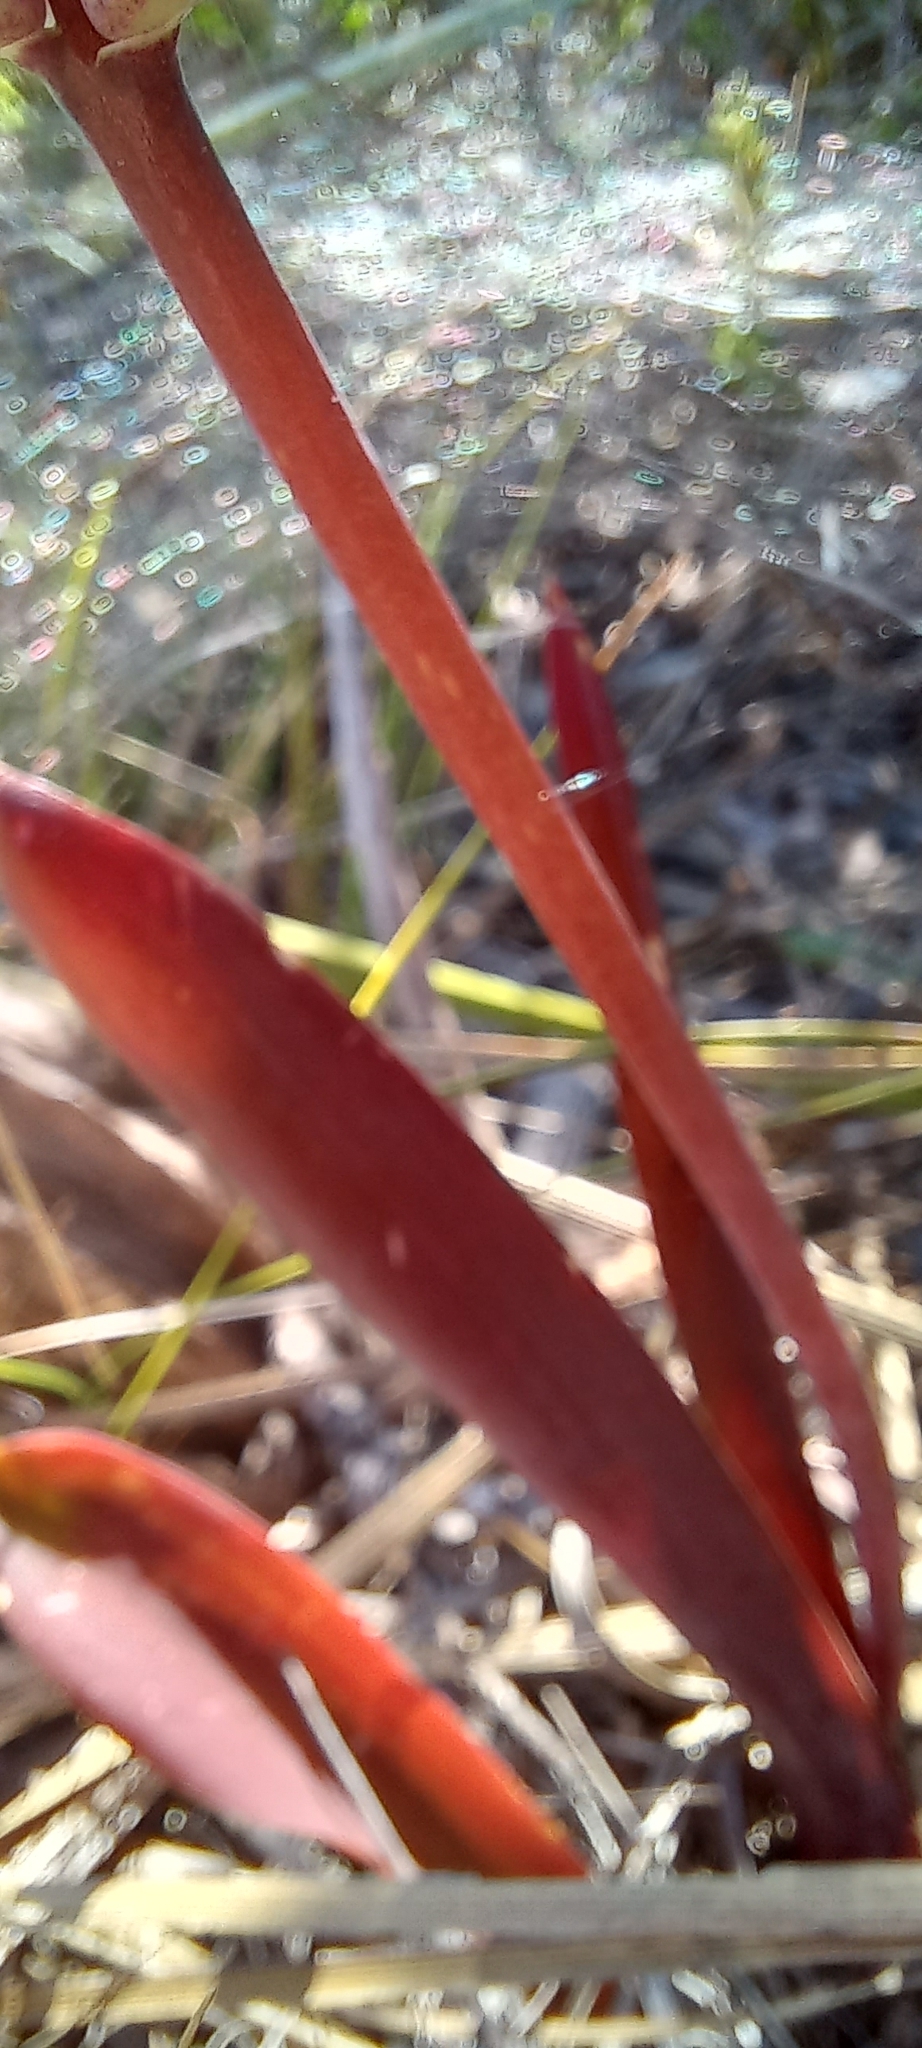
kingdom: Plantae
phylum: Tracheophyta
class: Liliopsida
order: Asparagales
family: Asparagaceae
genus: Lachenalia
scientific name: Lachenalia peersii
